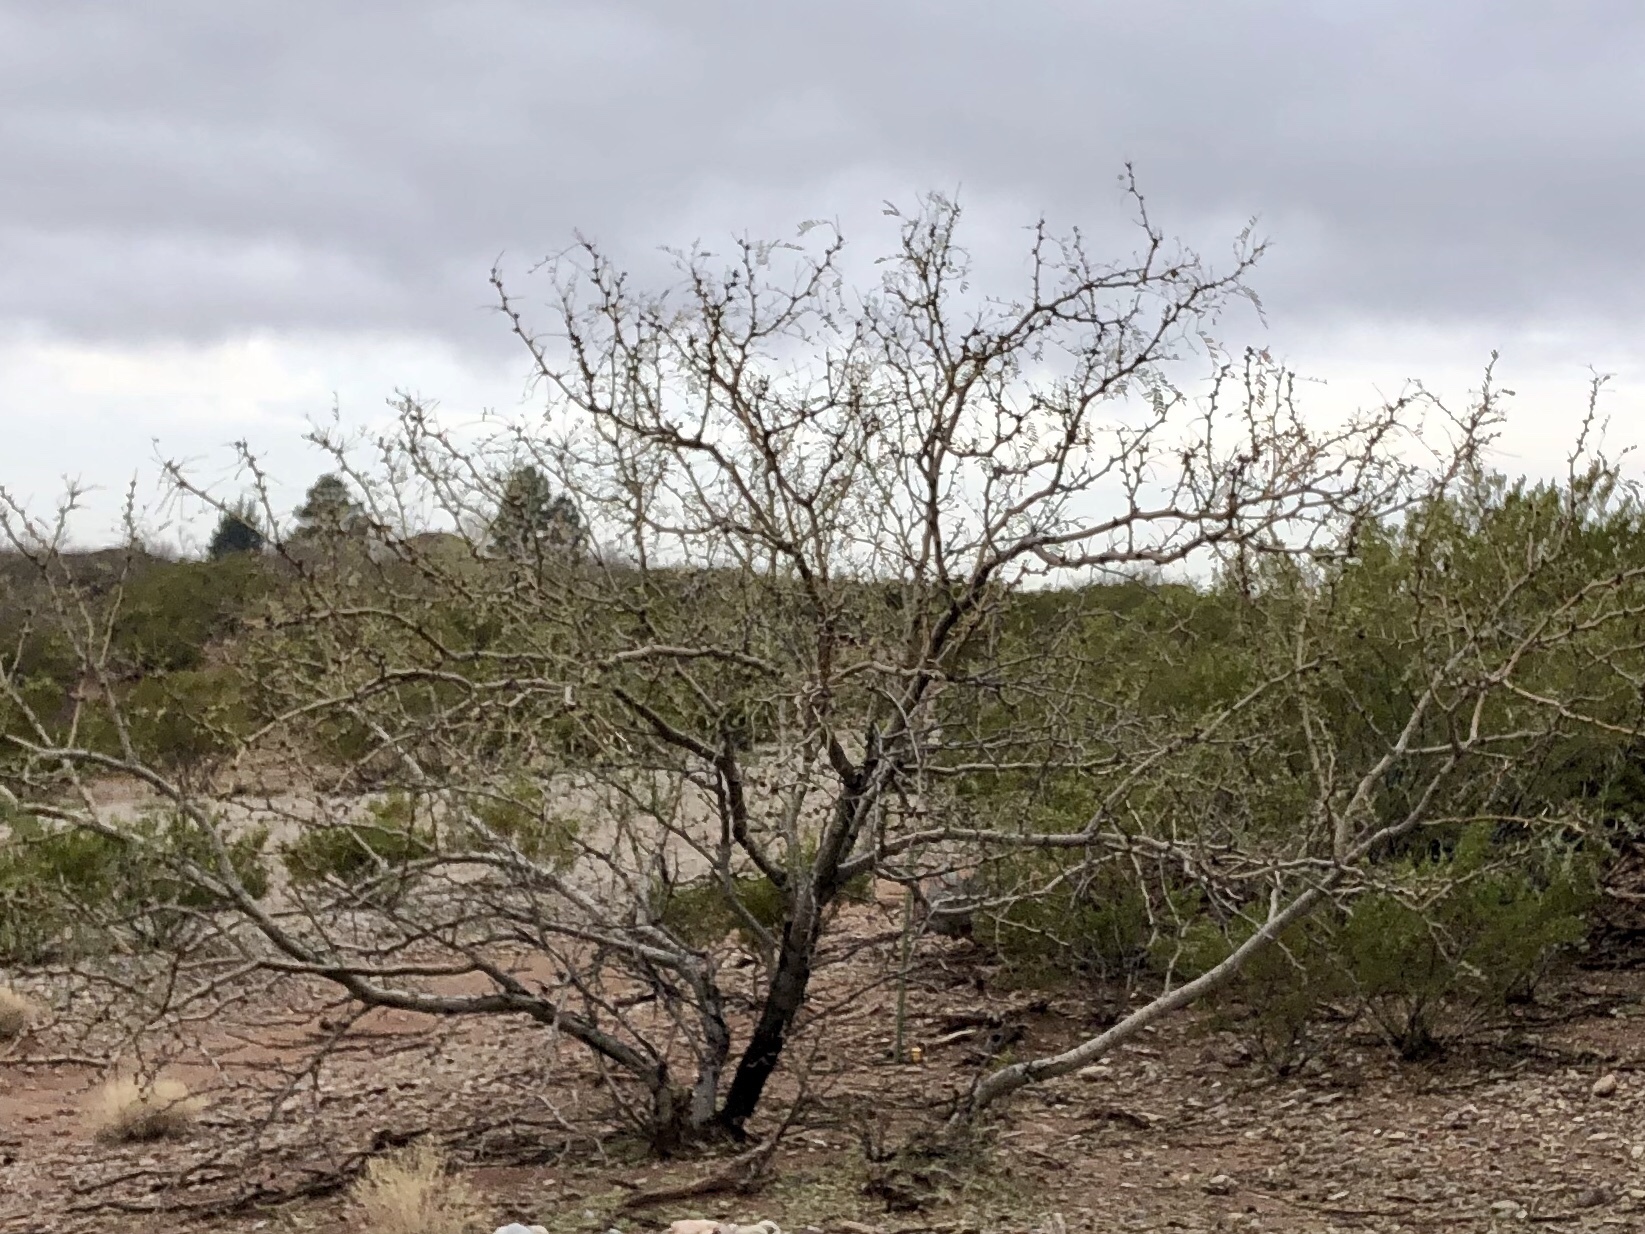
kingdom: Plantae
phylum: Tracheophyta
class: Magnoliopsida
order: Fabales
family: Fabaceae
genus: Prosopis
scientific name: Prosopis glandulosa
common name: Honey mesquite
